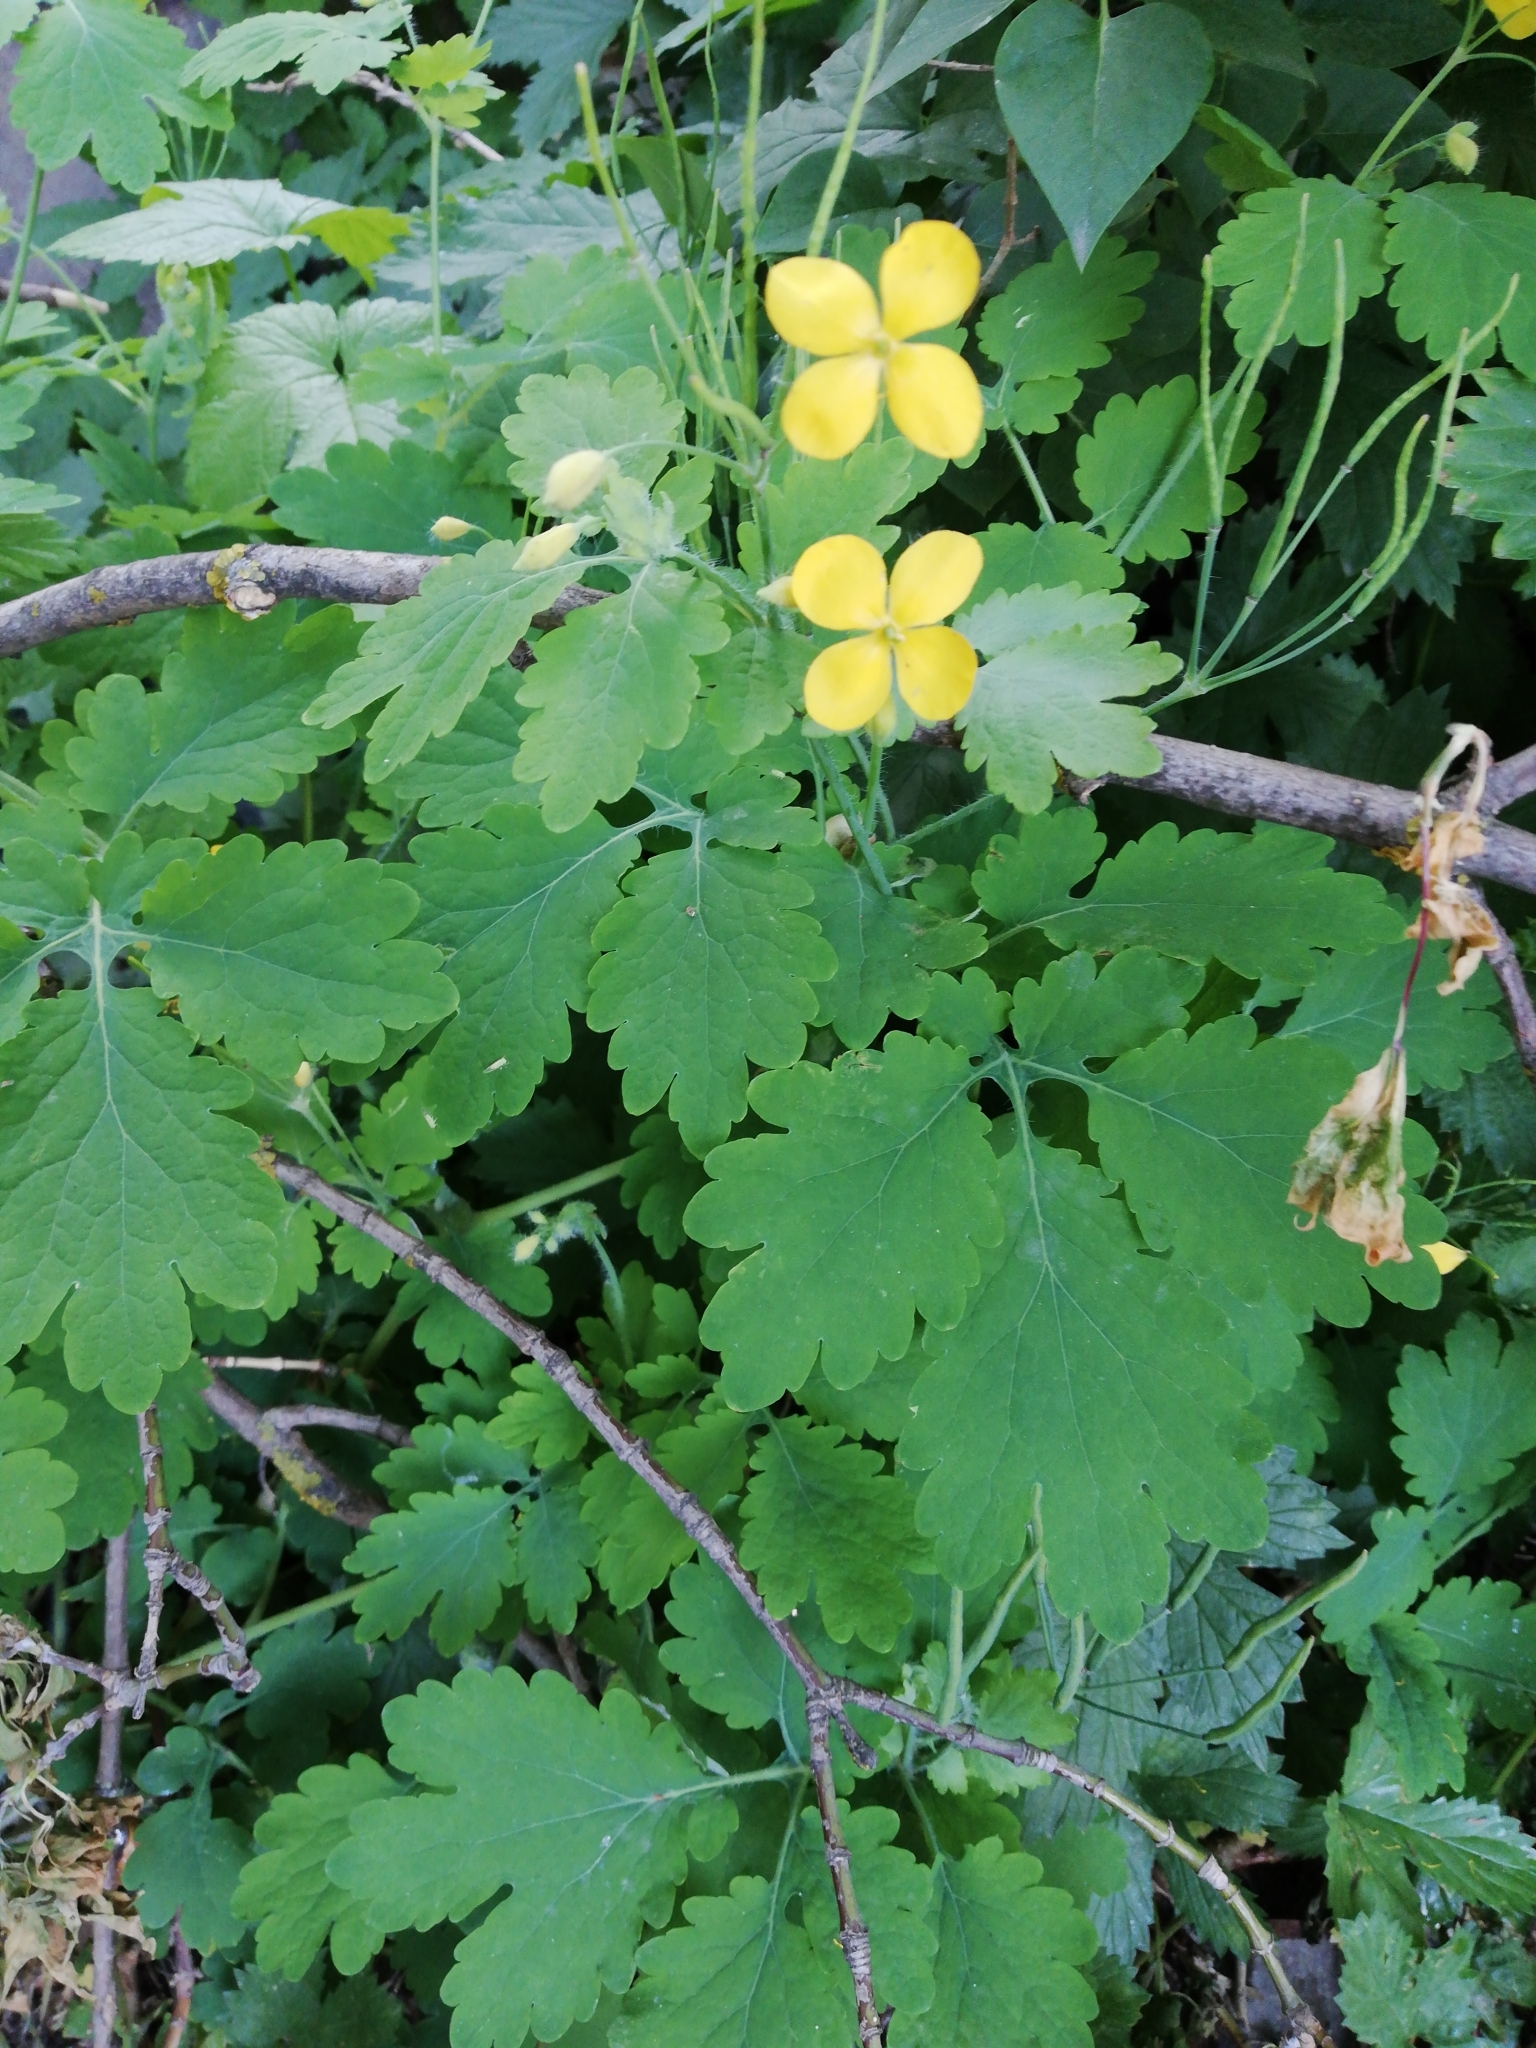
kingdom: Plantae
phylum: Tracheophyta
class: Magnoliopsida
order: Ranunculales
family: Papaveraceae
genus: Chelidonium
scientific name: Chelidonium majus
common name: Greater celandine
